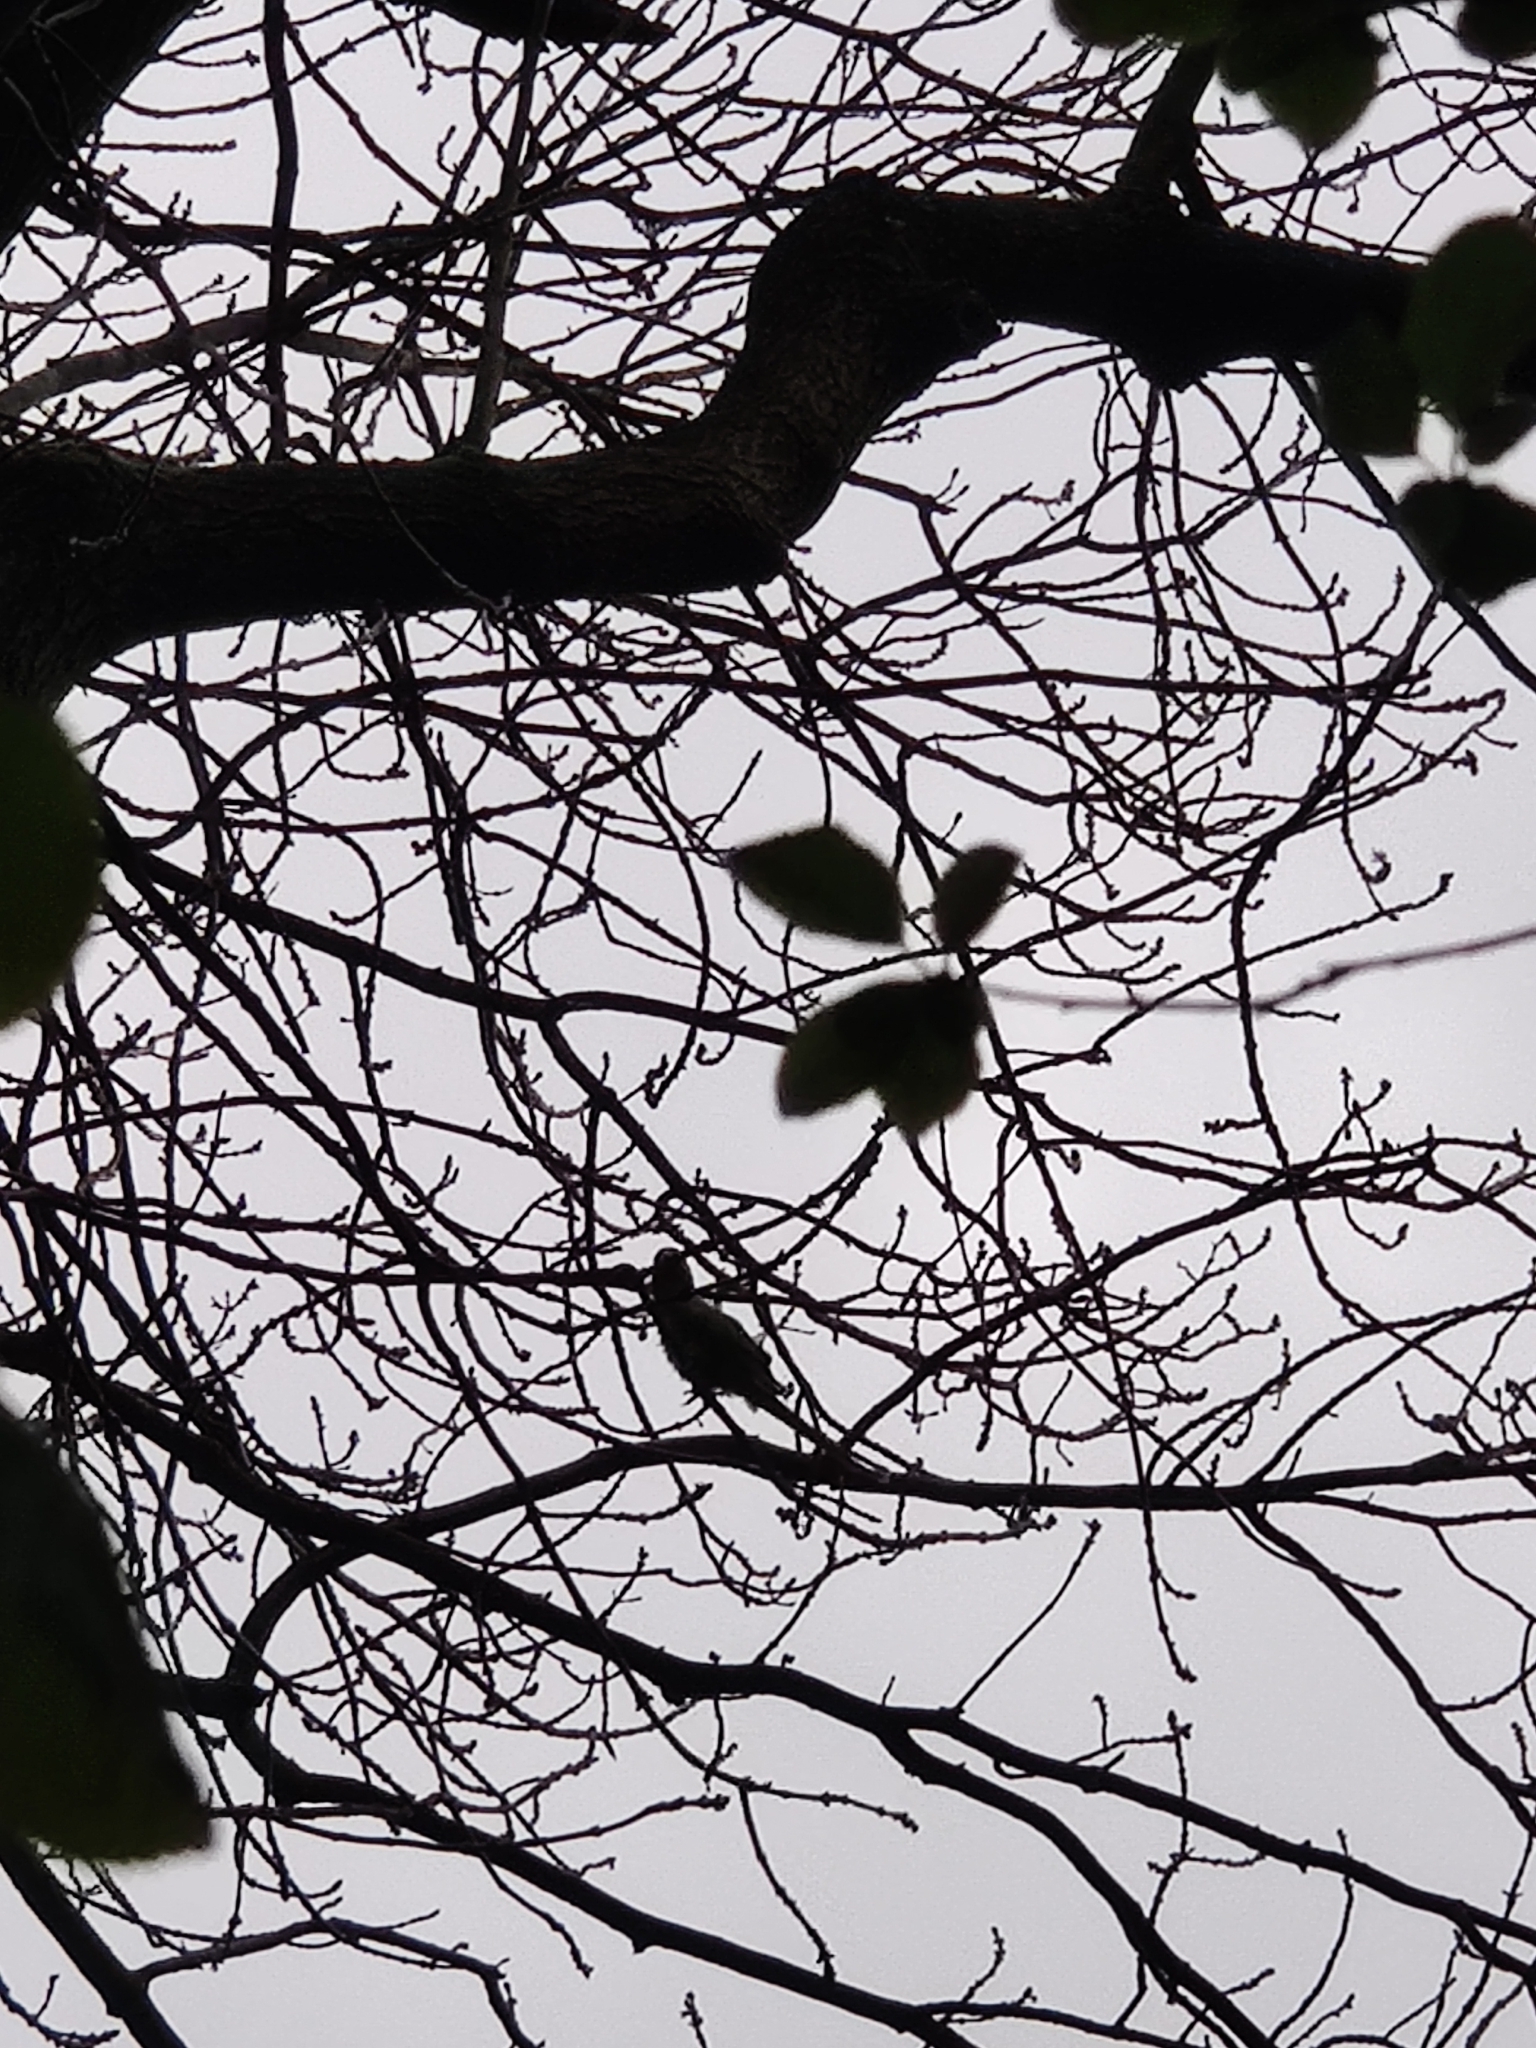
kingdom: Animalia
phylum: Chordata
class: Aves
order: Psittaciformes
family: Psittacidae
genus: Psittacula
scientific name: Psittacula krameri
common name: Rose-ringed parakeet
